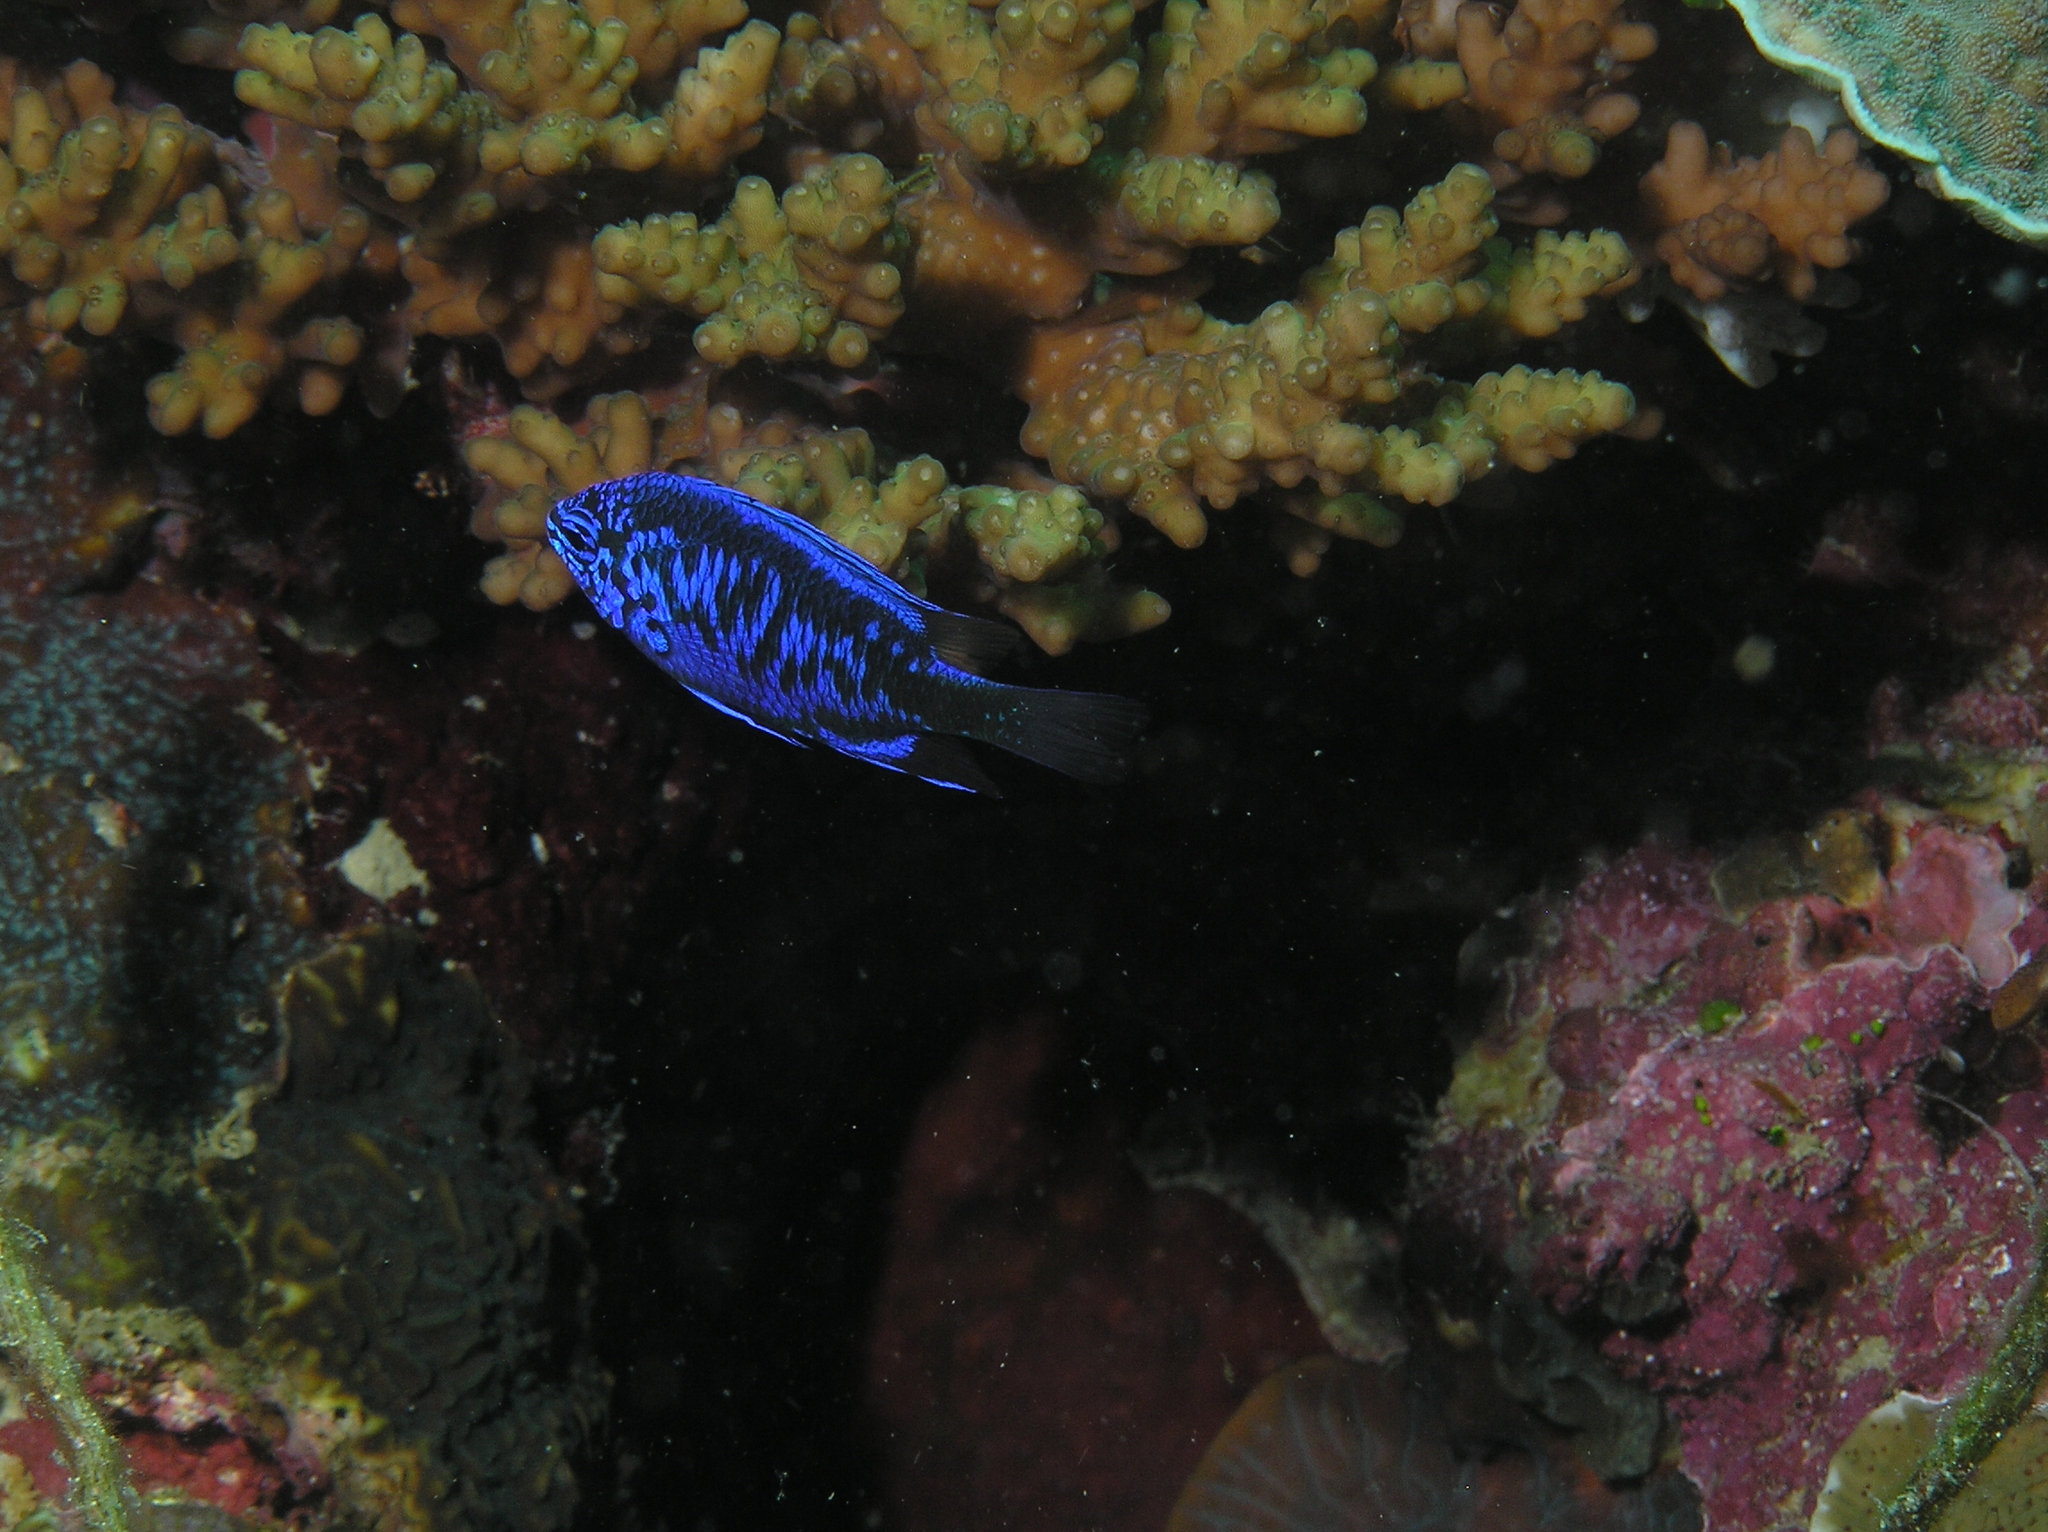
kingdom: Animalia
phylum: Chordata
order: Perciformes
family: Pomacentridae
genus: Chrysiptera
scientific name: Chrysiptera springeri
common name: Springer's demoiselle
